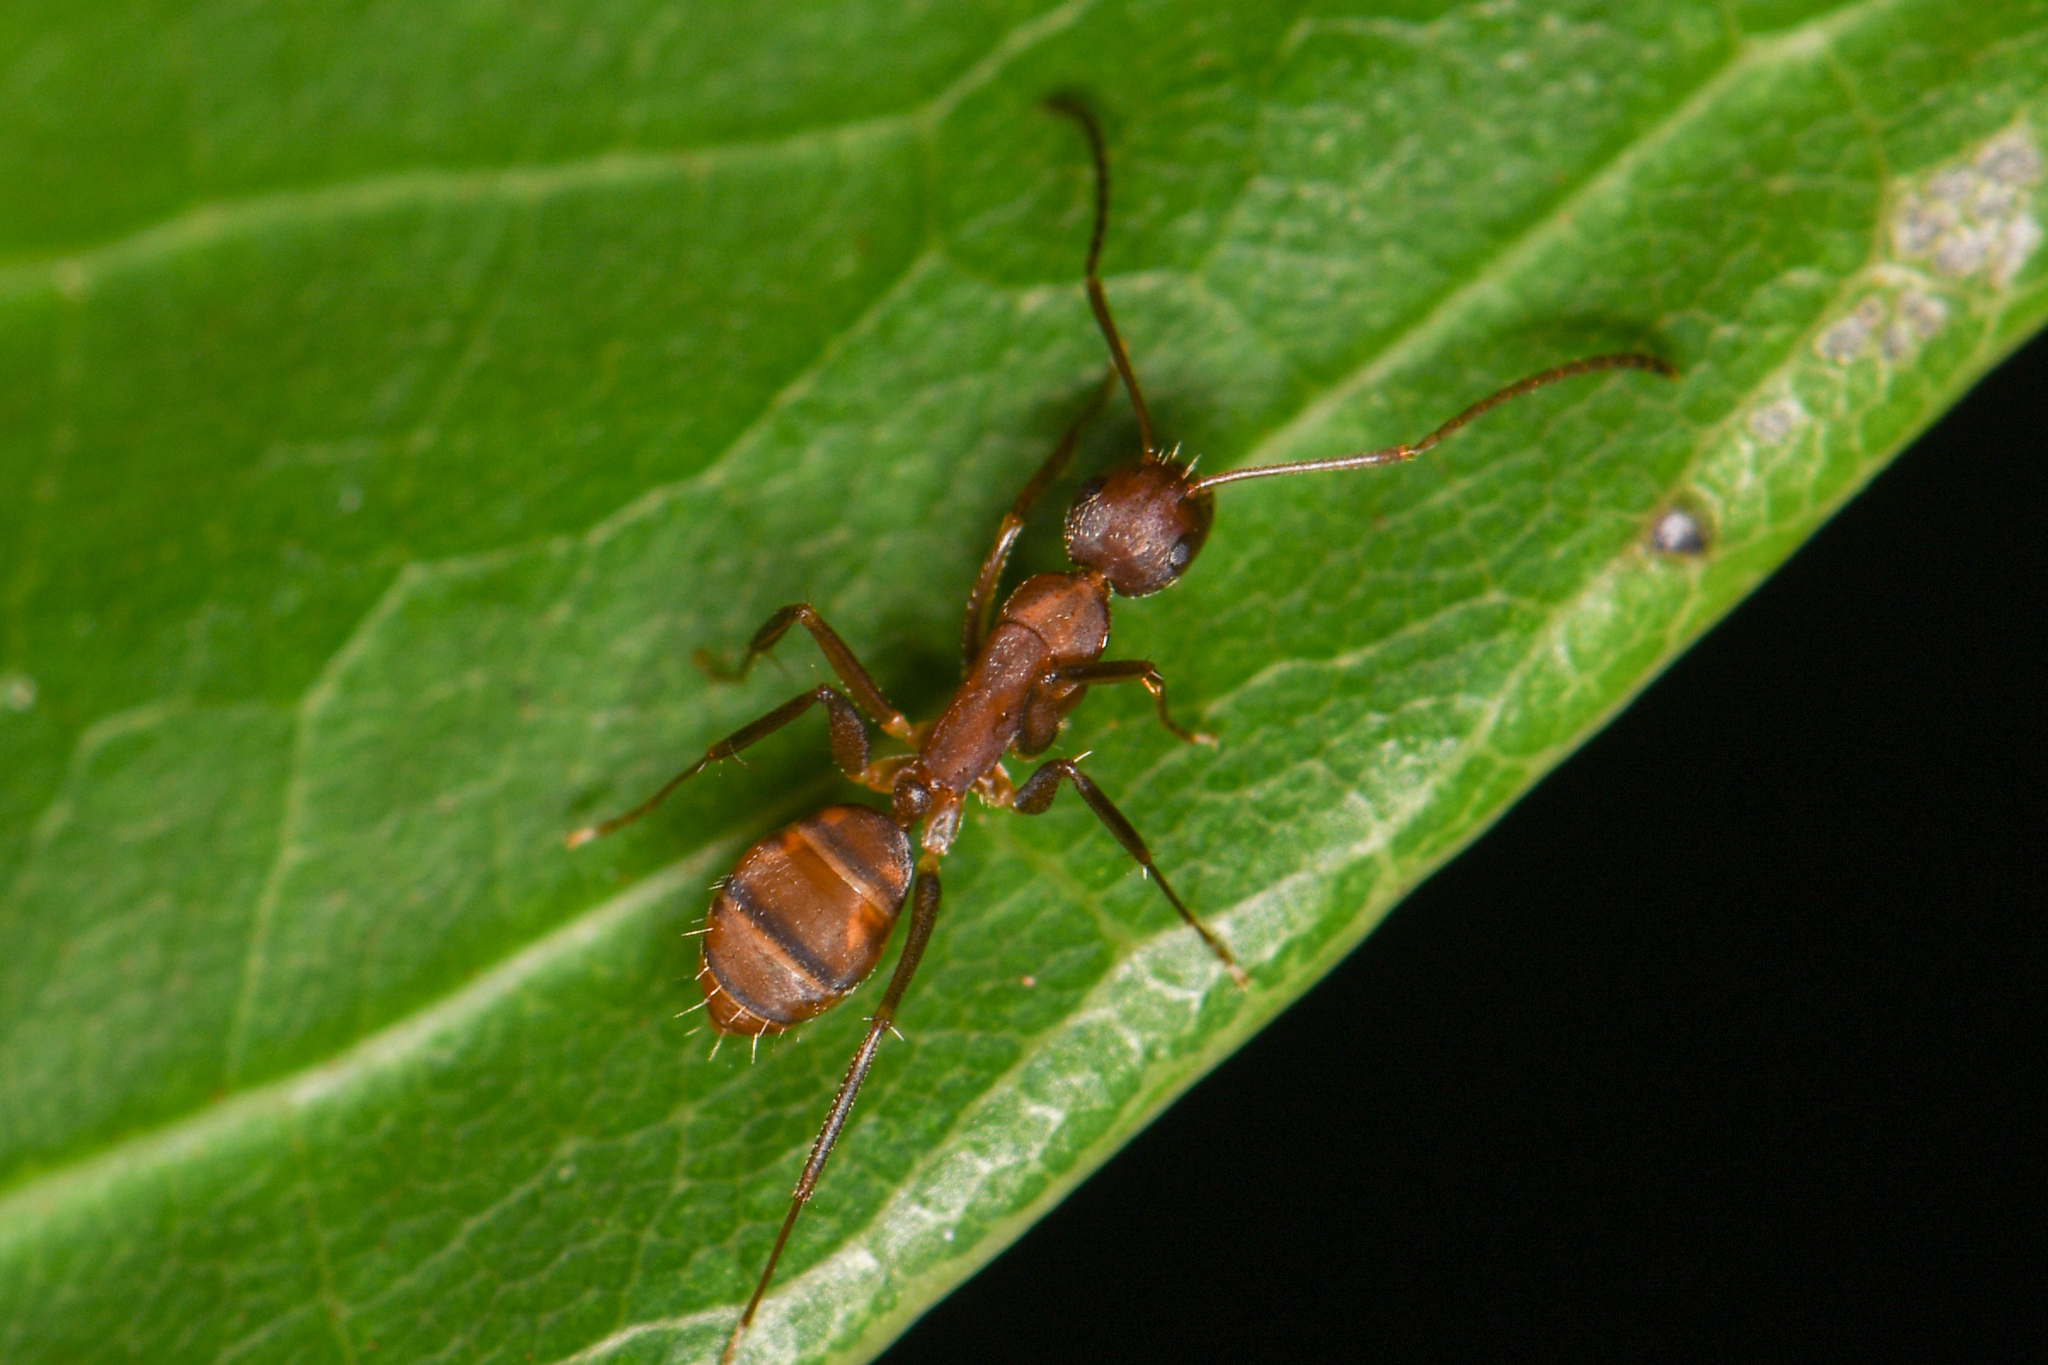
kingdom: Animalia
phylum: Arthropoda
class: Insecta
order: Hymenoptera
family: Formicidae
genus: Camponotus
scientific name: Camponotus juliae
